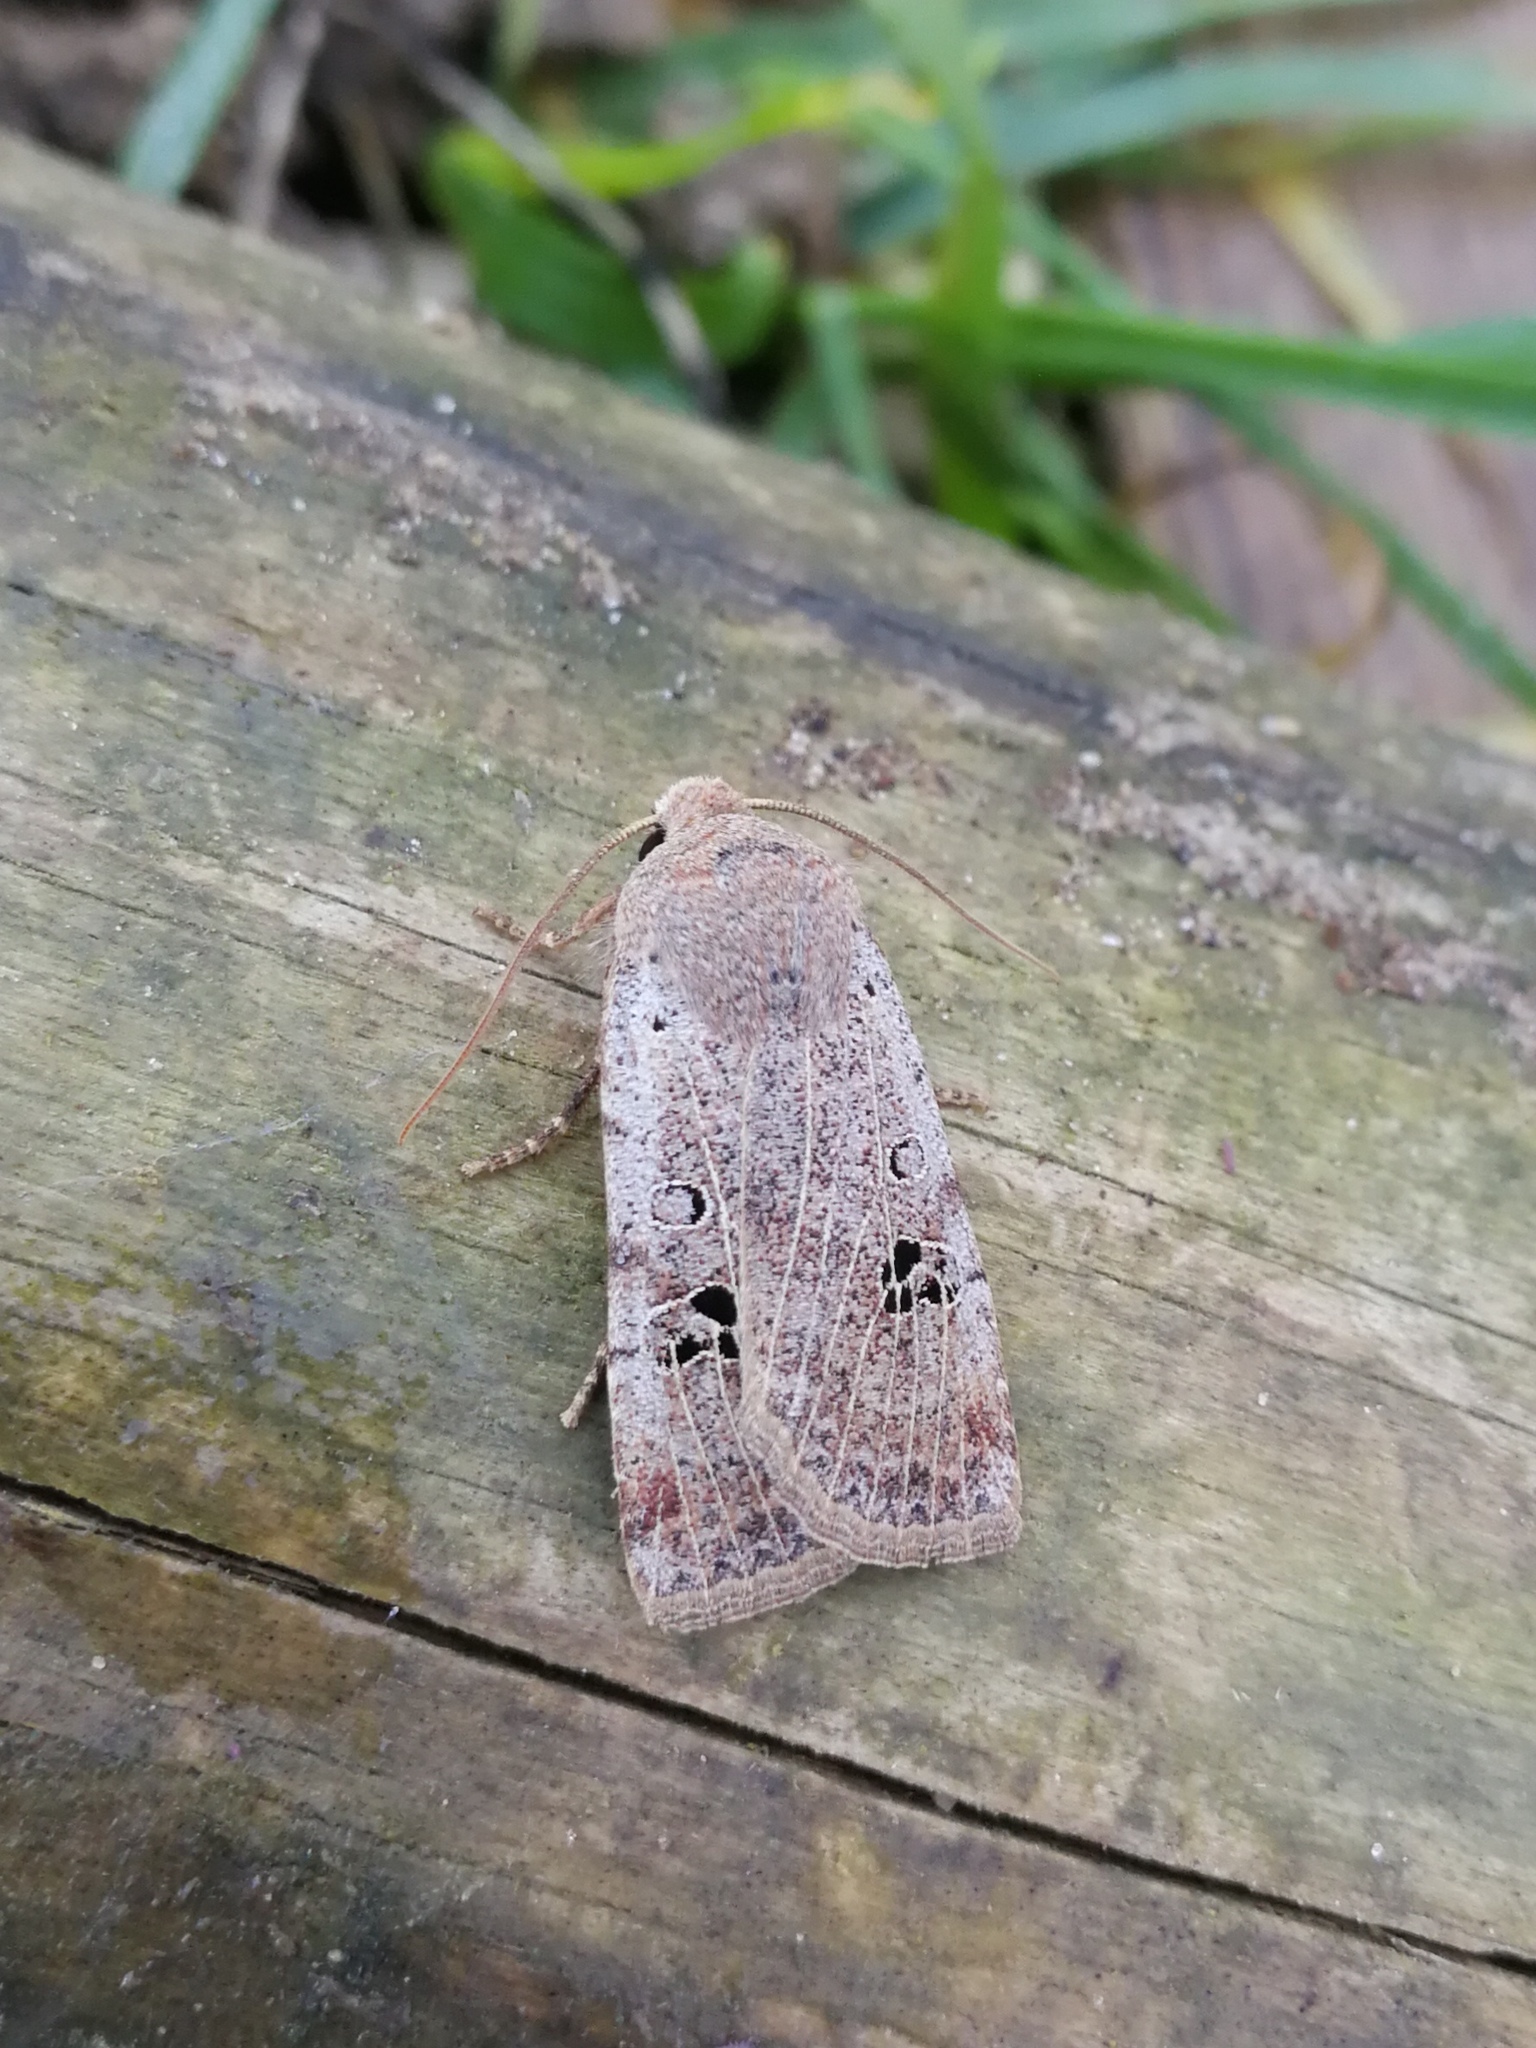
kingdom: Animalia
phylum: Arthropoda
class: Insecta
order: Lepidoptera
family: Noctuidae
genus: Conistra
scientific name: Conistra gallica
